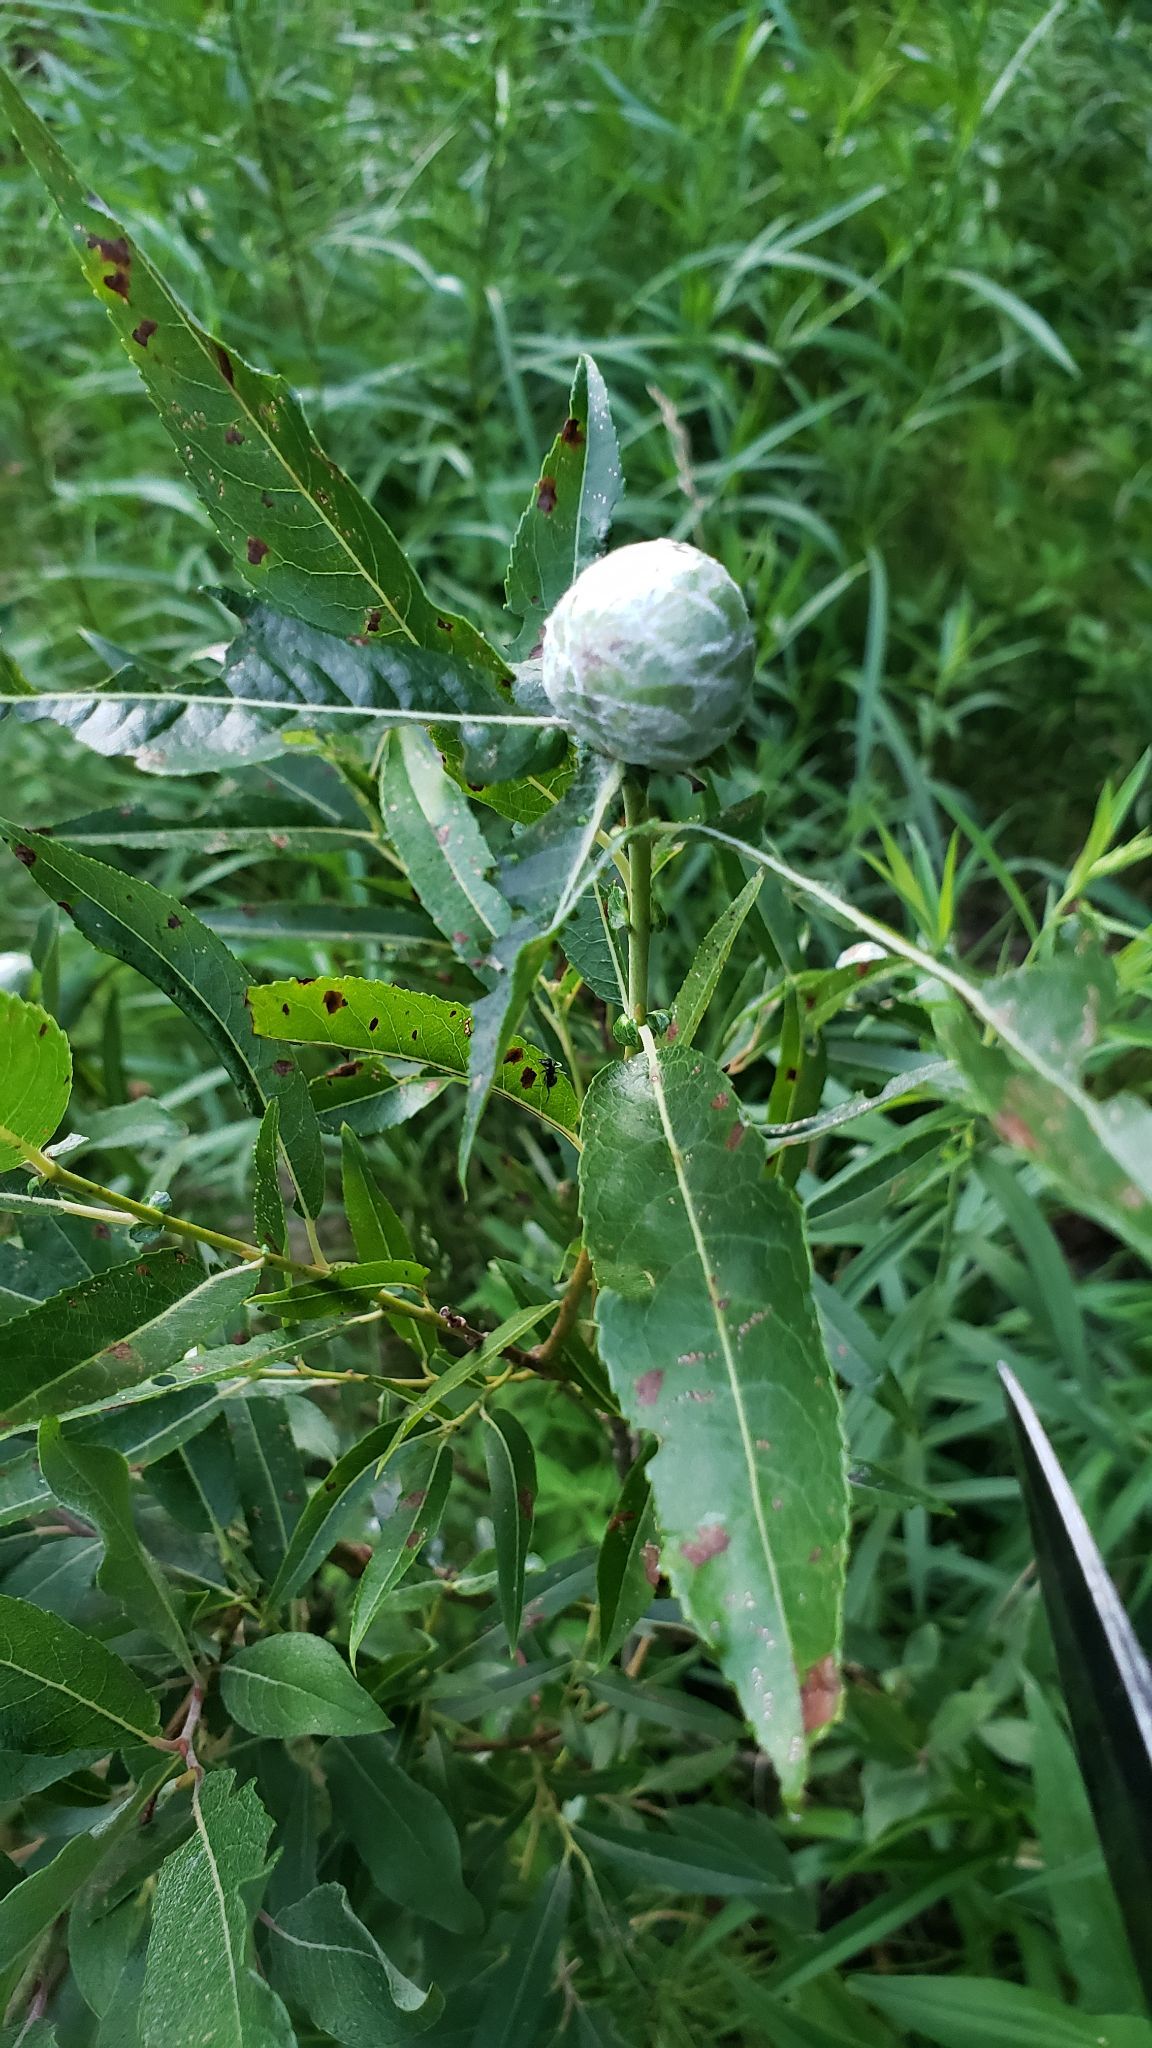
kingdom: Animalia
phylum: Arthropoda
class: Insecta
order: Diptera
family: Cecidomyiidae
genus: Rabdophaga
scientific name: Rabdophaga strobiloides
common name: Willow pinecone gall midge
